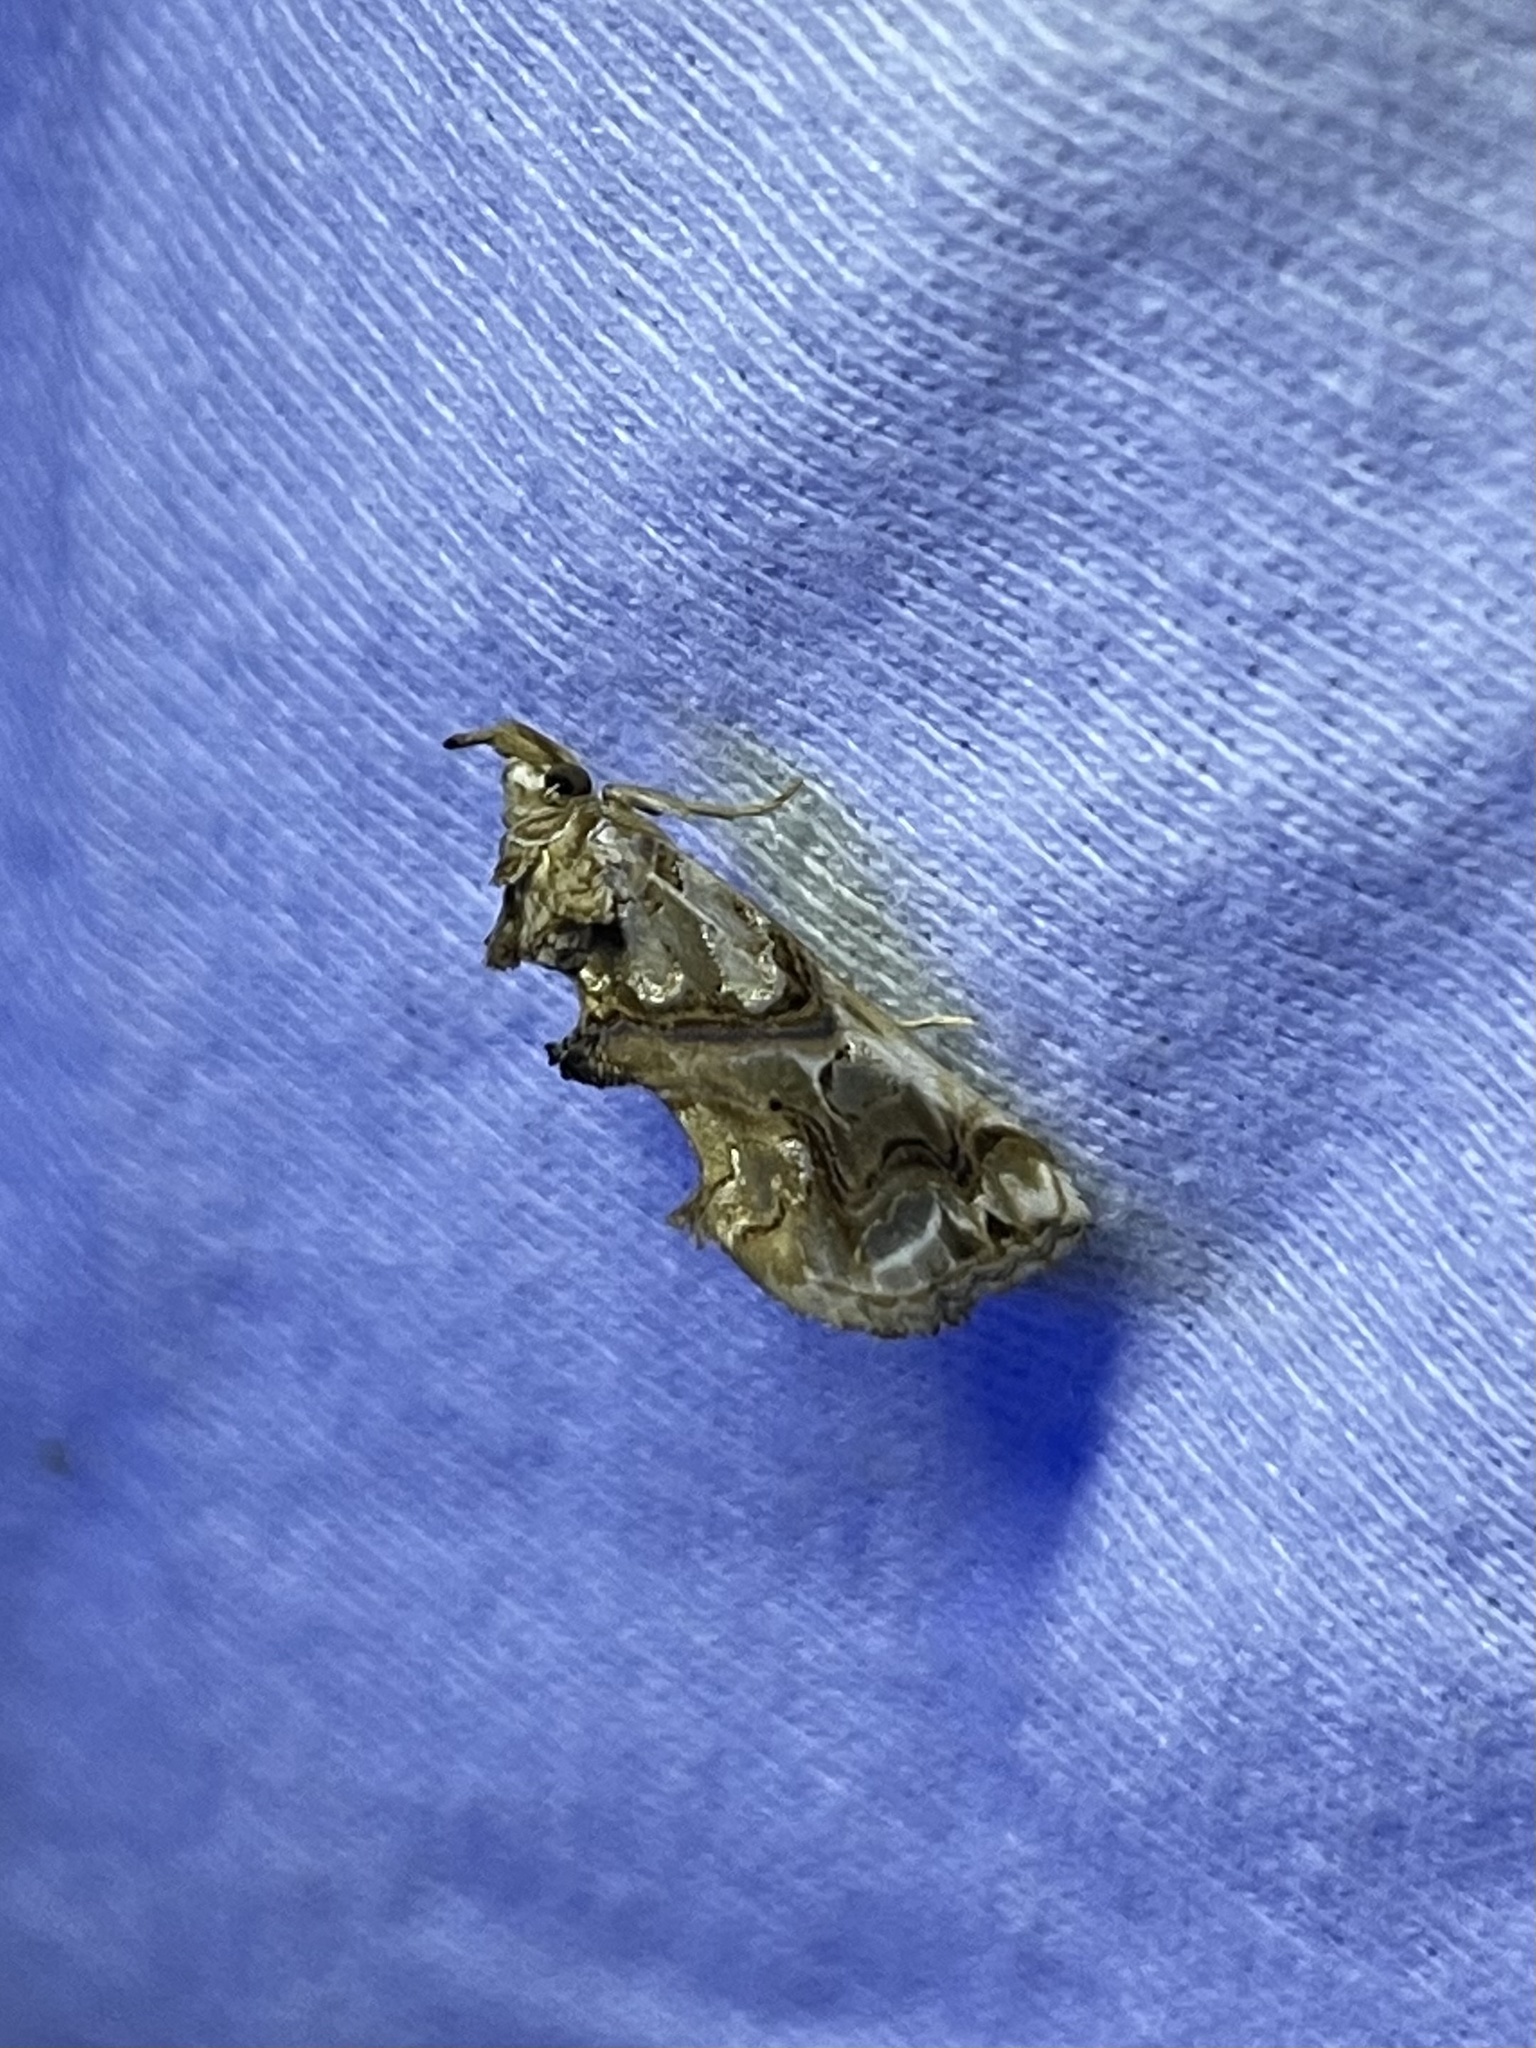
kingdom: Animalia
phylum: Arthropoda
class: Insecta
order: Lepidoptera
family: Erebidae
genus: Plusiodonta
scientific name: Plusiodonta compressipalpis
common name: Moonseed moth
